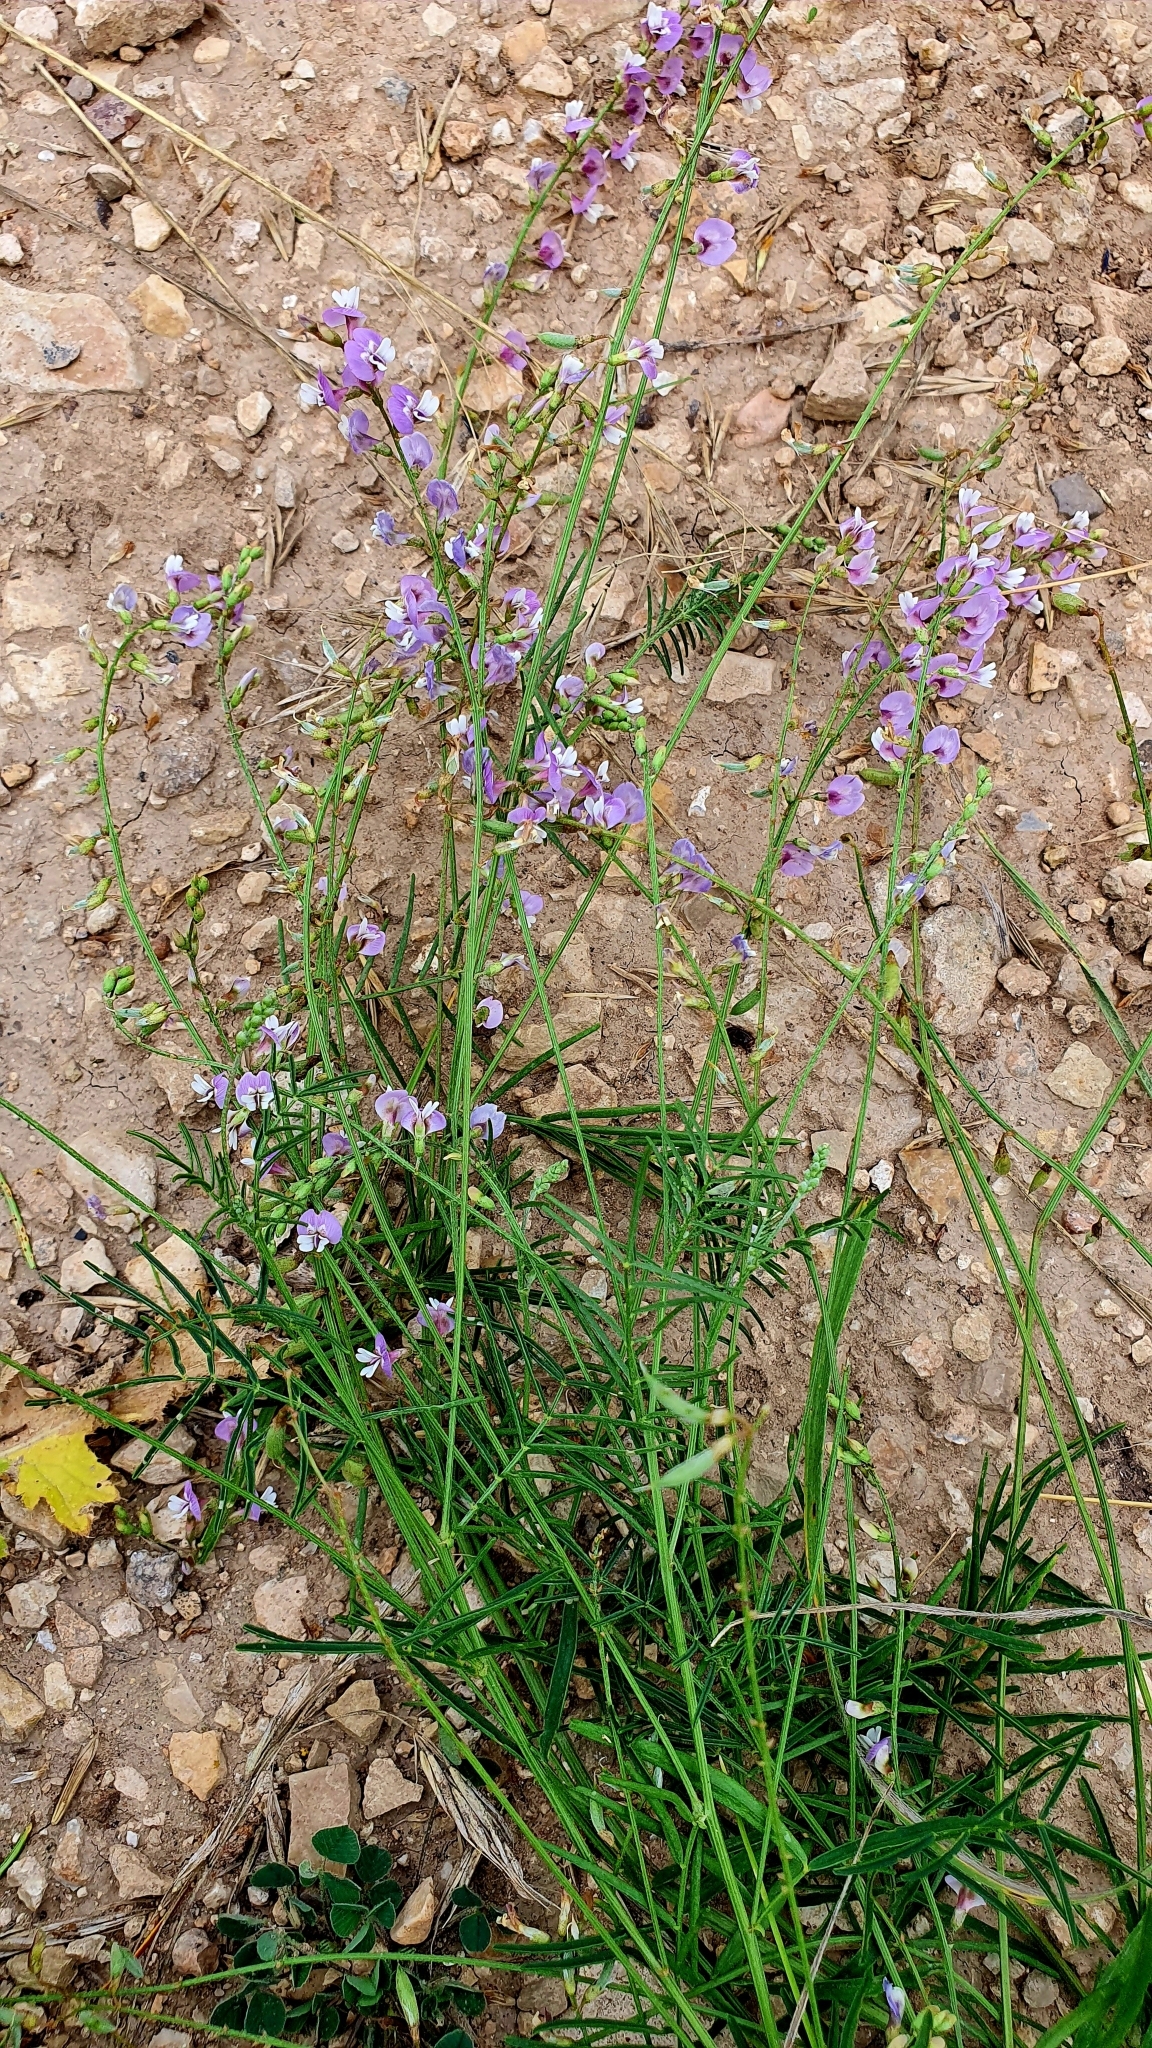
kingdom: Plantae
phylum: Tracheophyta
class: Magnoliopsida
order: Fabales
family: Fabaceae
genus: Astragalus
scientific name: Astragalus austriacus
